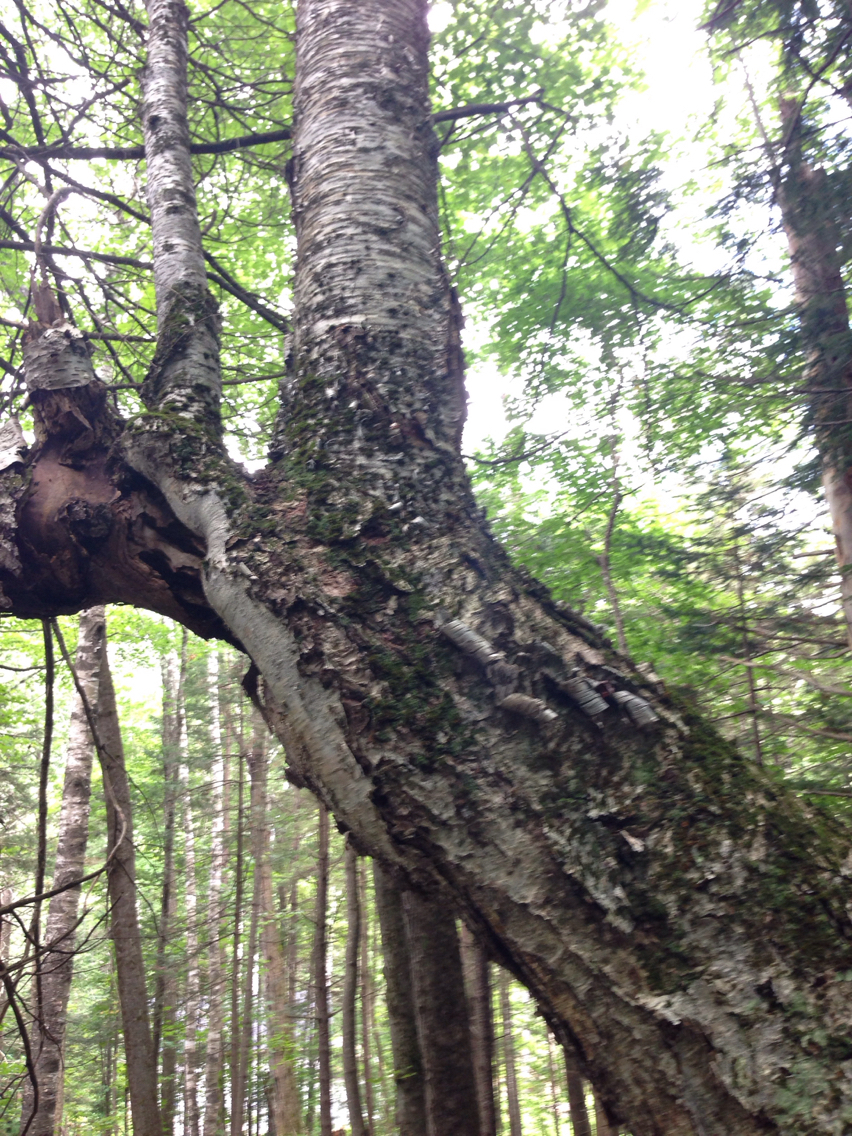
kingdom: Plantae
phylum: Tracheophyta
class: Magnoliopsida
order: Fagales
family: Betulaceae
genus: Betula
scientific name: Betula alleghaniensis
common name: Yellow birch
